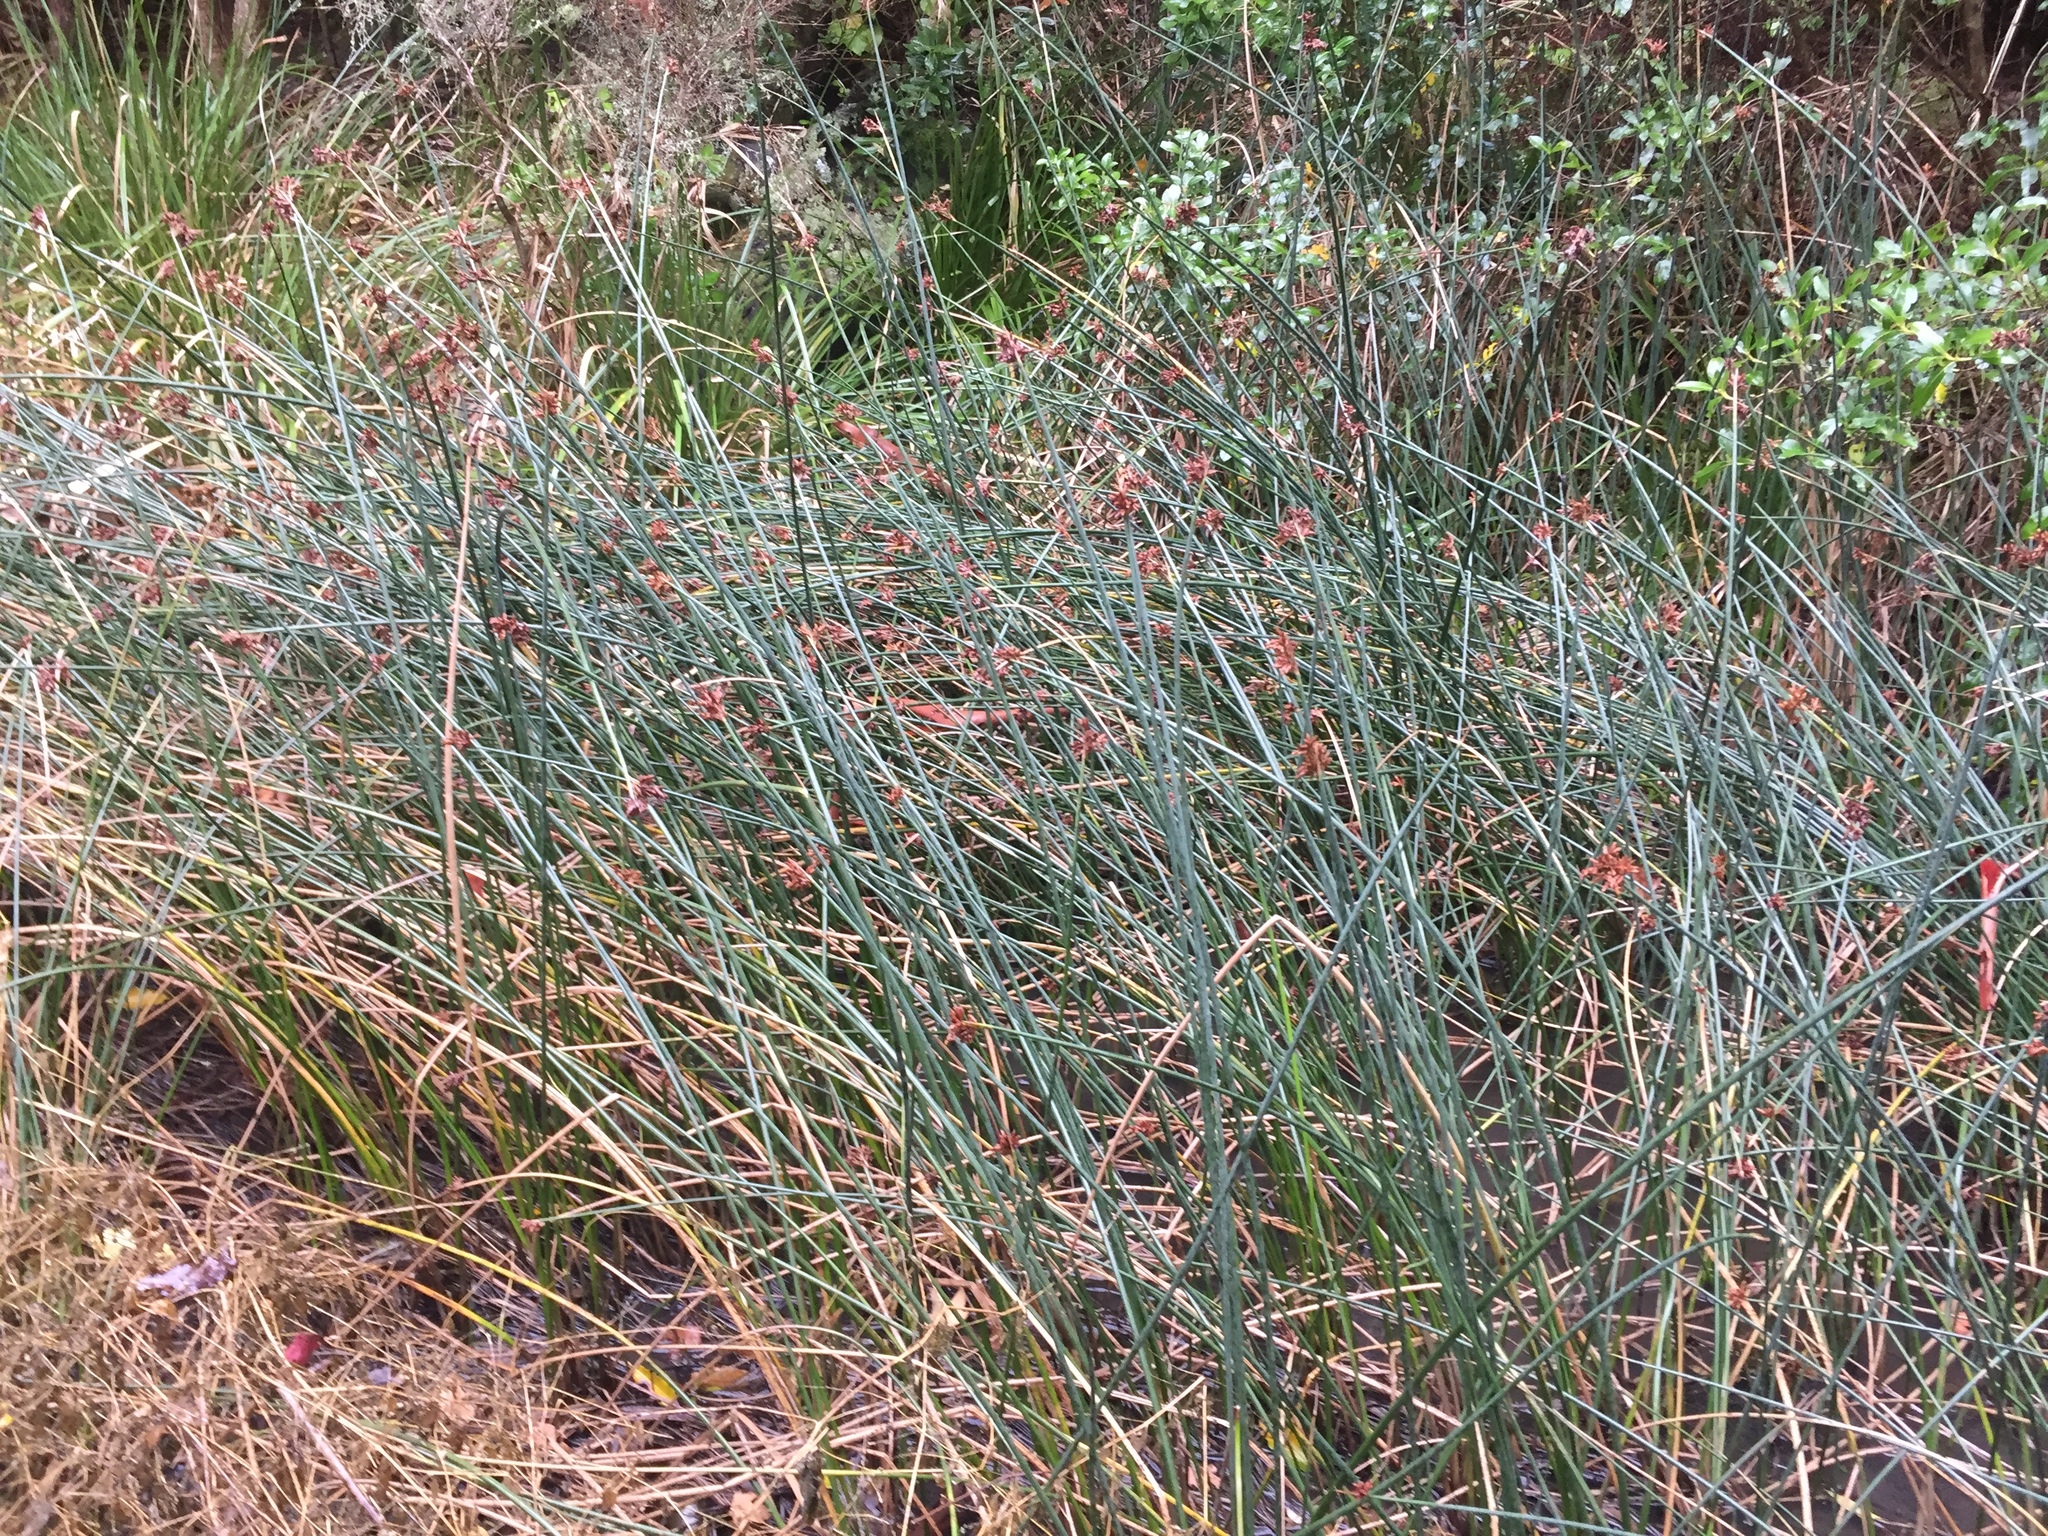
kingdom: Plantae
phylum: Tracheophyta
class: Liliopsida
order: Poales
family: Cyperaceae
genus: Schoenoplectus
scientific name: Schoenoplectus tabernaemontani
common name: Grey club-rush
